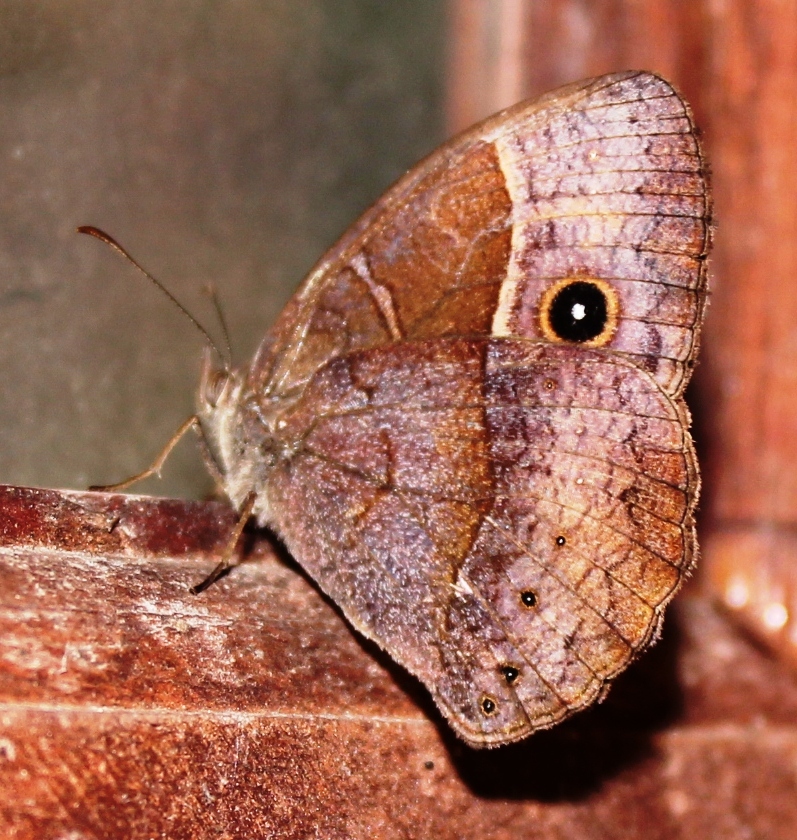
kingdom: Animalia
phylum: Arthropoda
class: Insecta
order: Lepidoptera
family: Nymphalidae
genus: Mycalesis
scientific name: Mycalesis rhacotis
